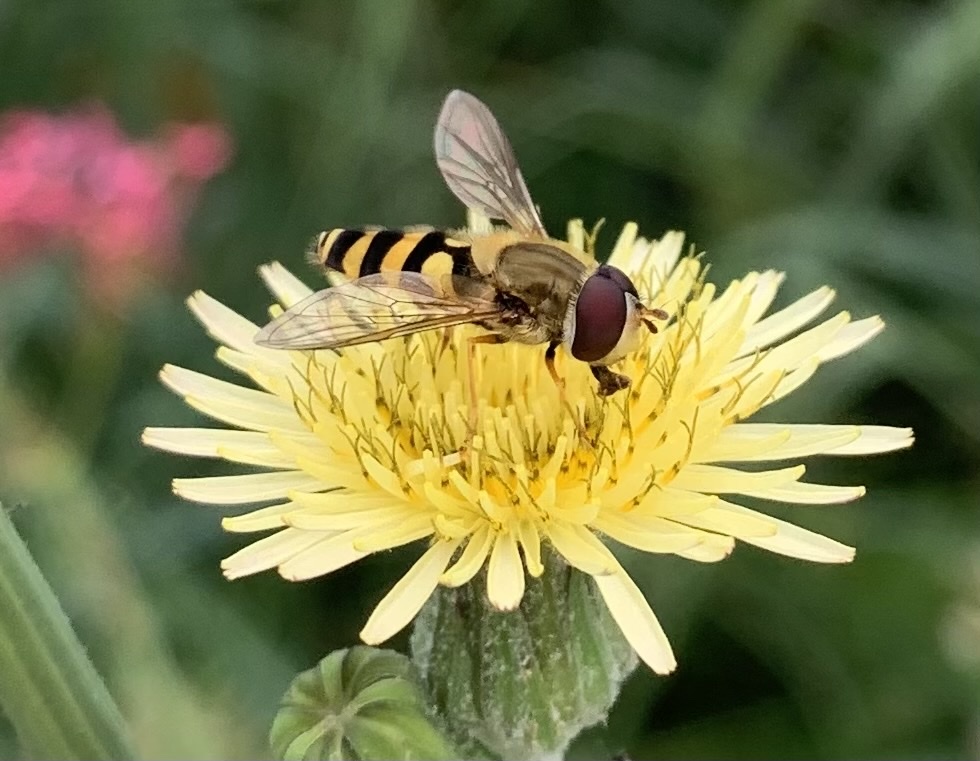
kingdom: Animalia
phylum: Arthropoda
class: Insecta
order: Diptera
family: Syrphidae
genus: Syrphus
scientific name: Syrphus
